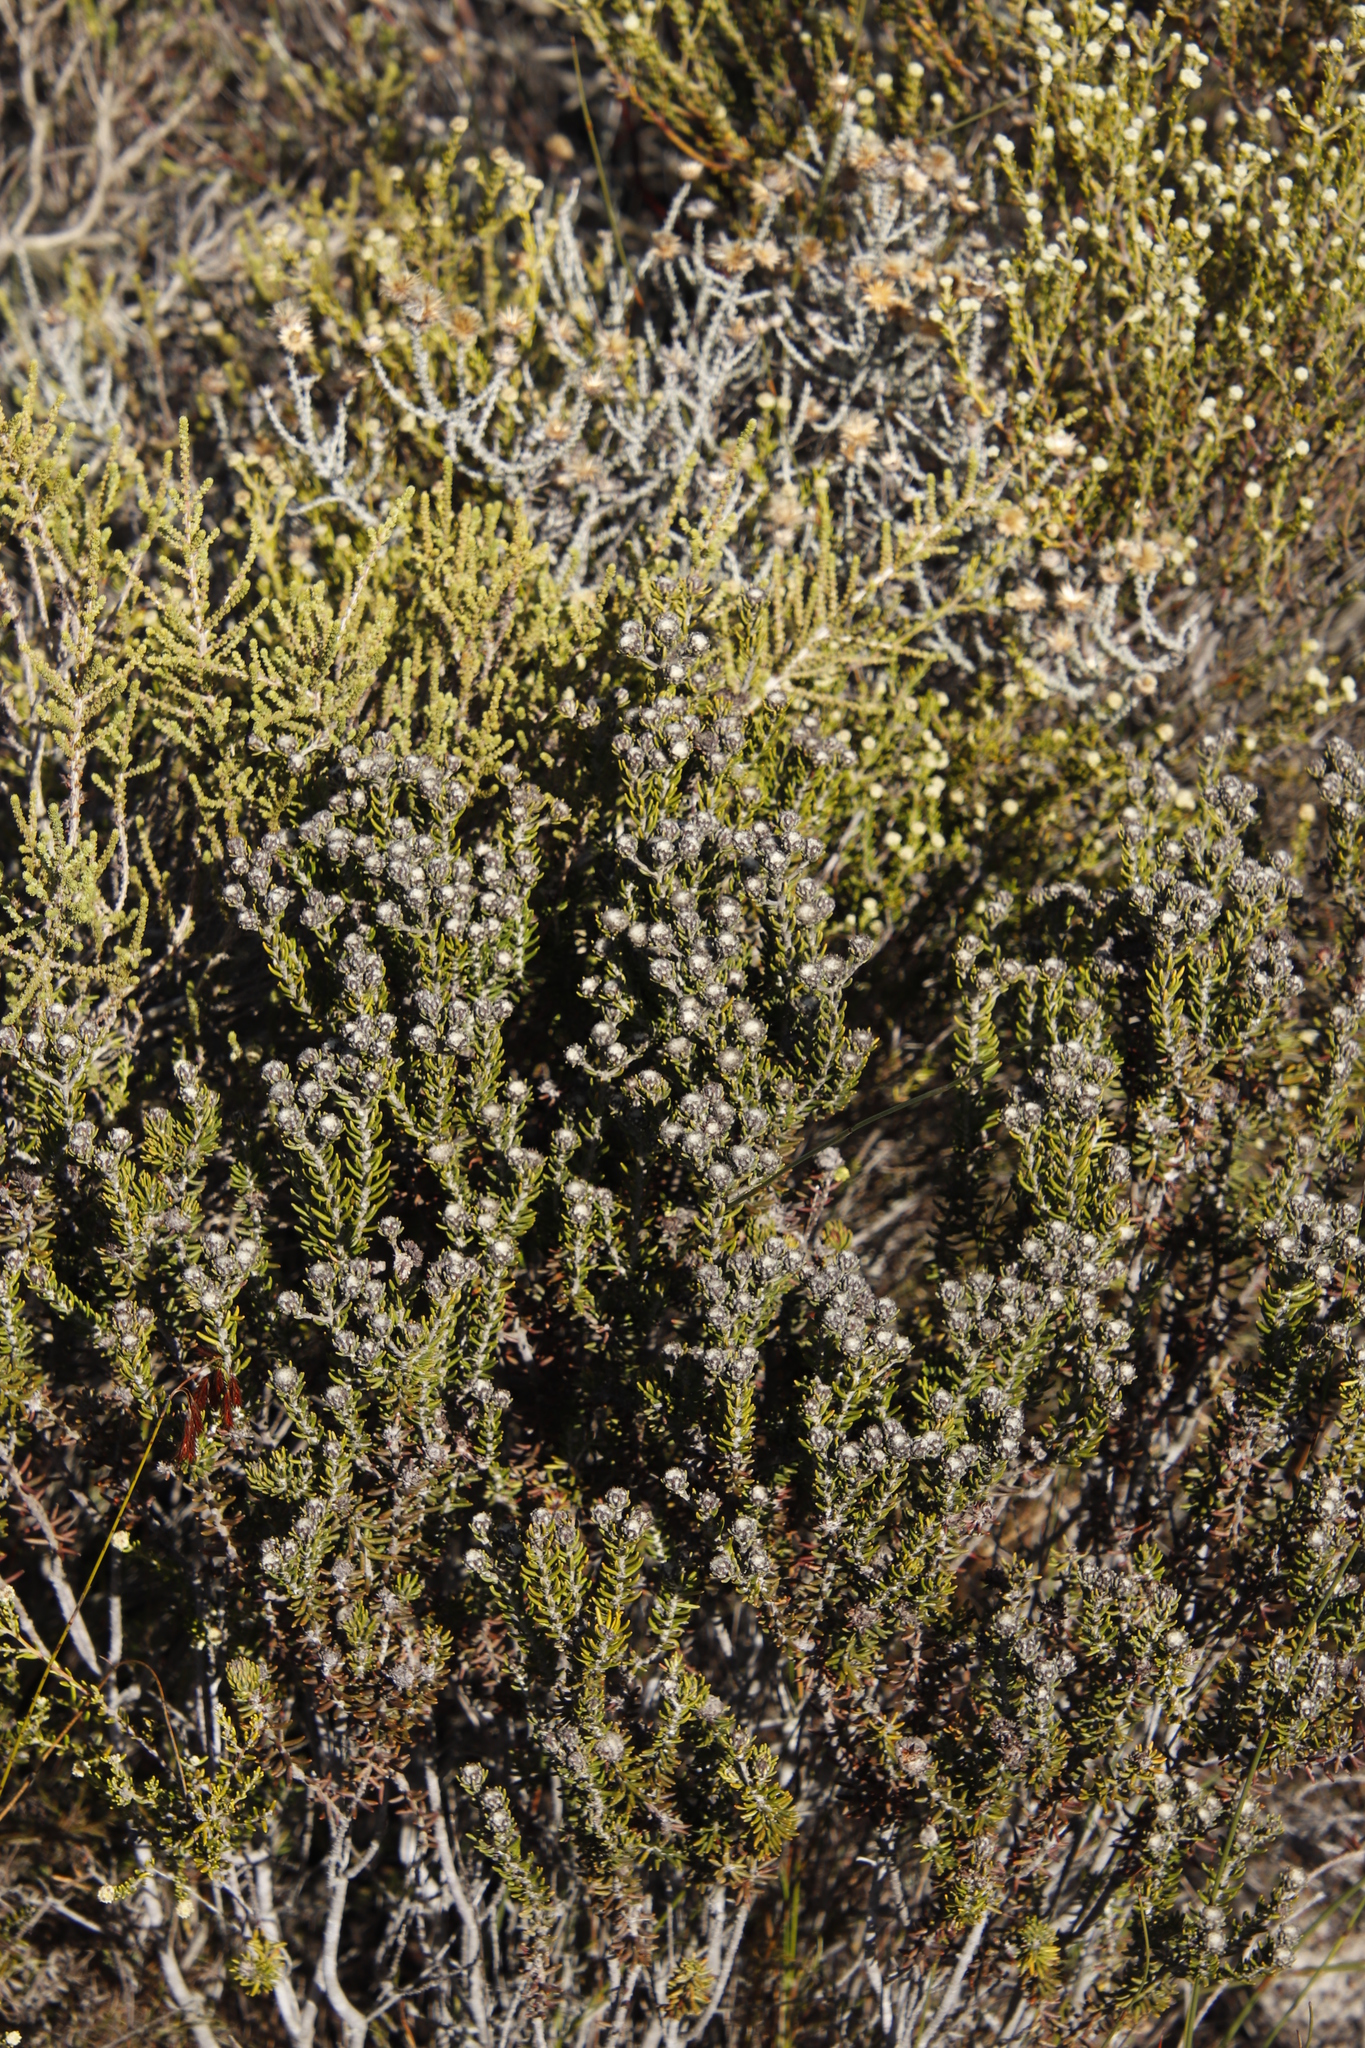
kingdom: Plantae
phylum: Tracheophyta
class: Magnoliopsida
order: Rosales
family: Rhamnaceae
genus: Phylica
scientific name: Phylica ericoides
